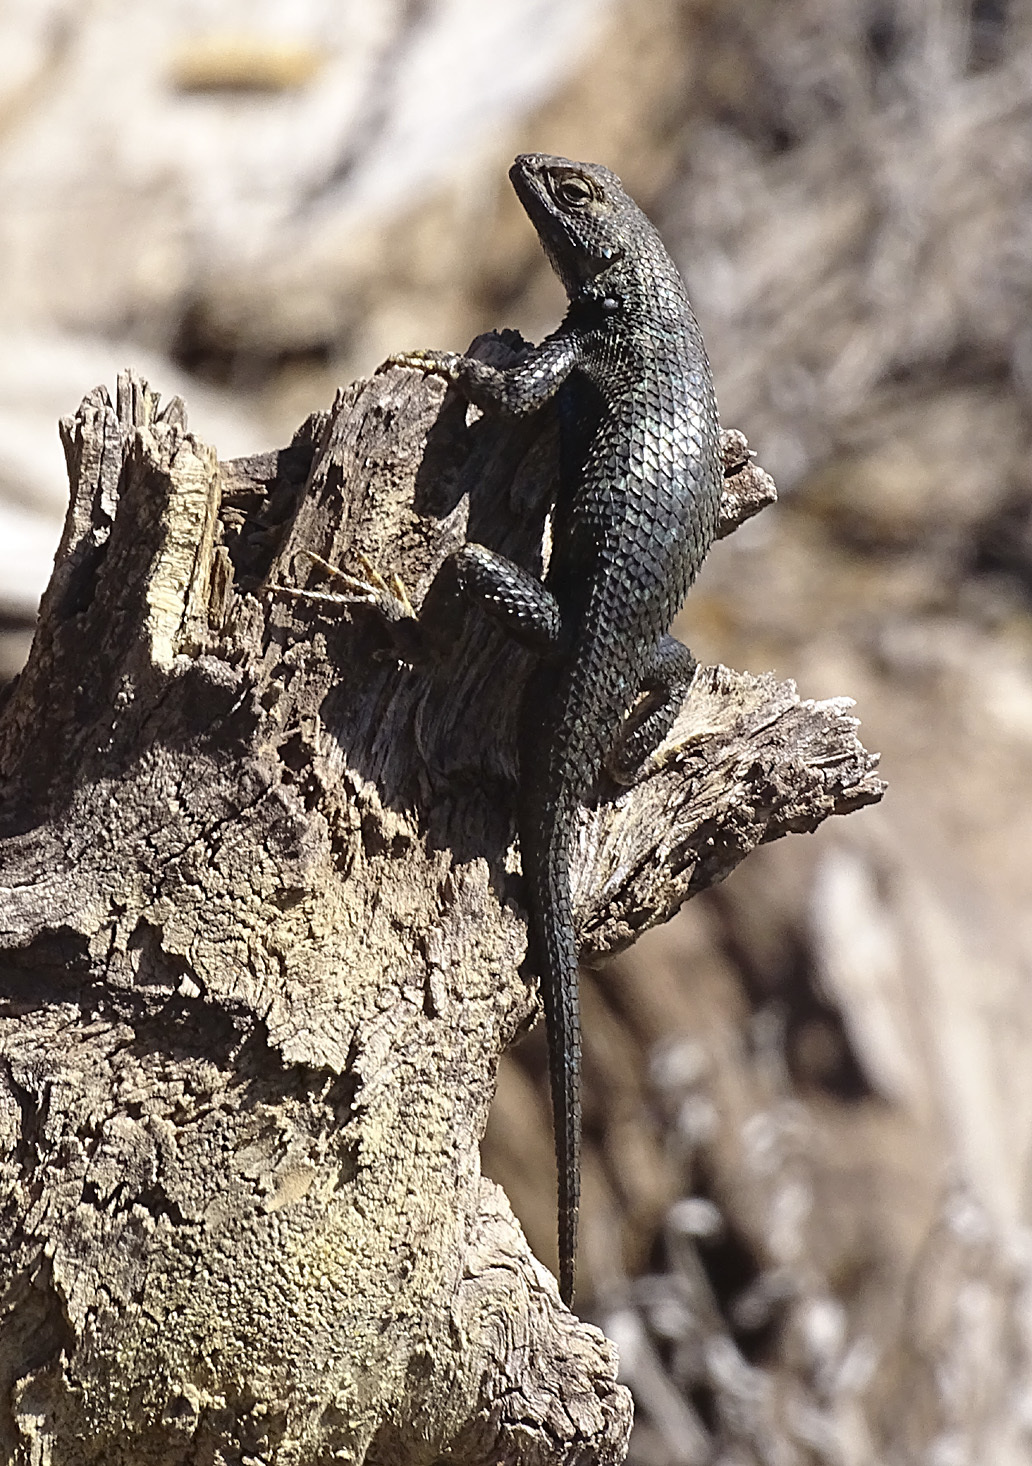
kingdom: Animalia
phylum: Chordata
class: Squamata
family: Phrynosomatidae
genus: Sceloporus
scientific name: Sceloporus occidentalis
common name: Western fence lizard
